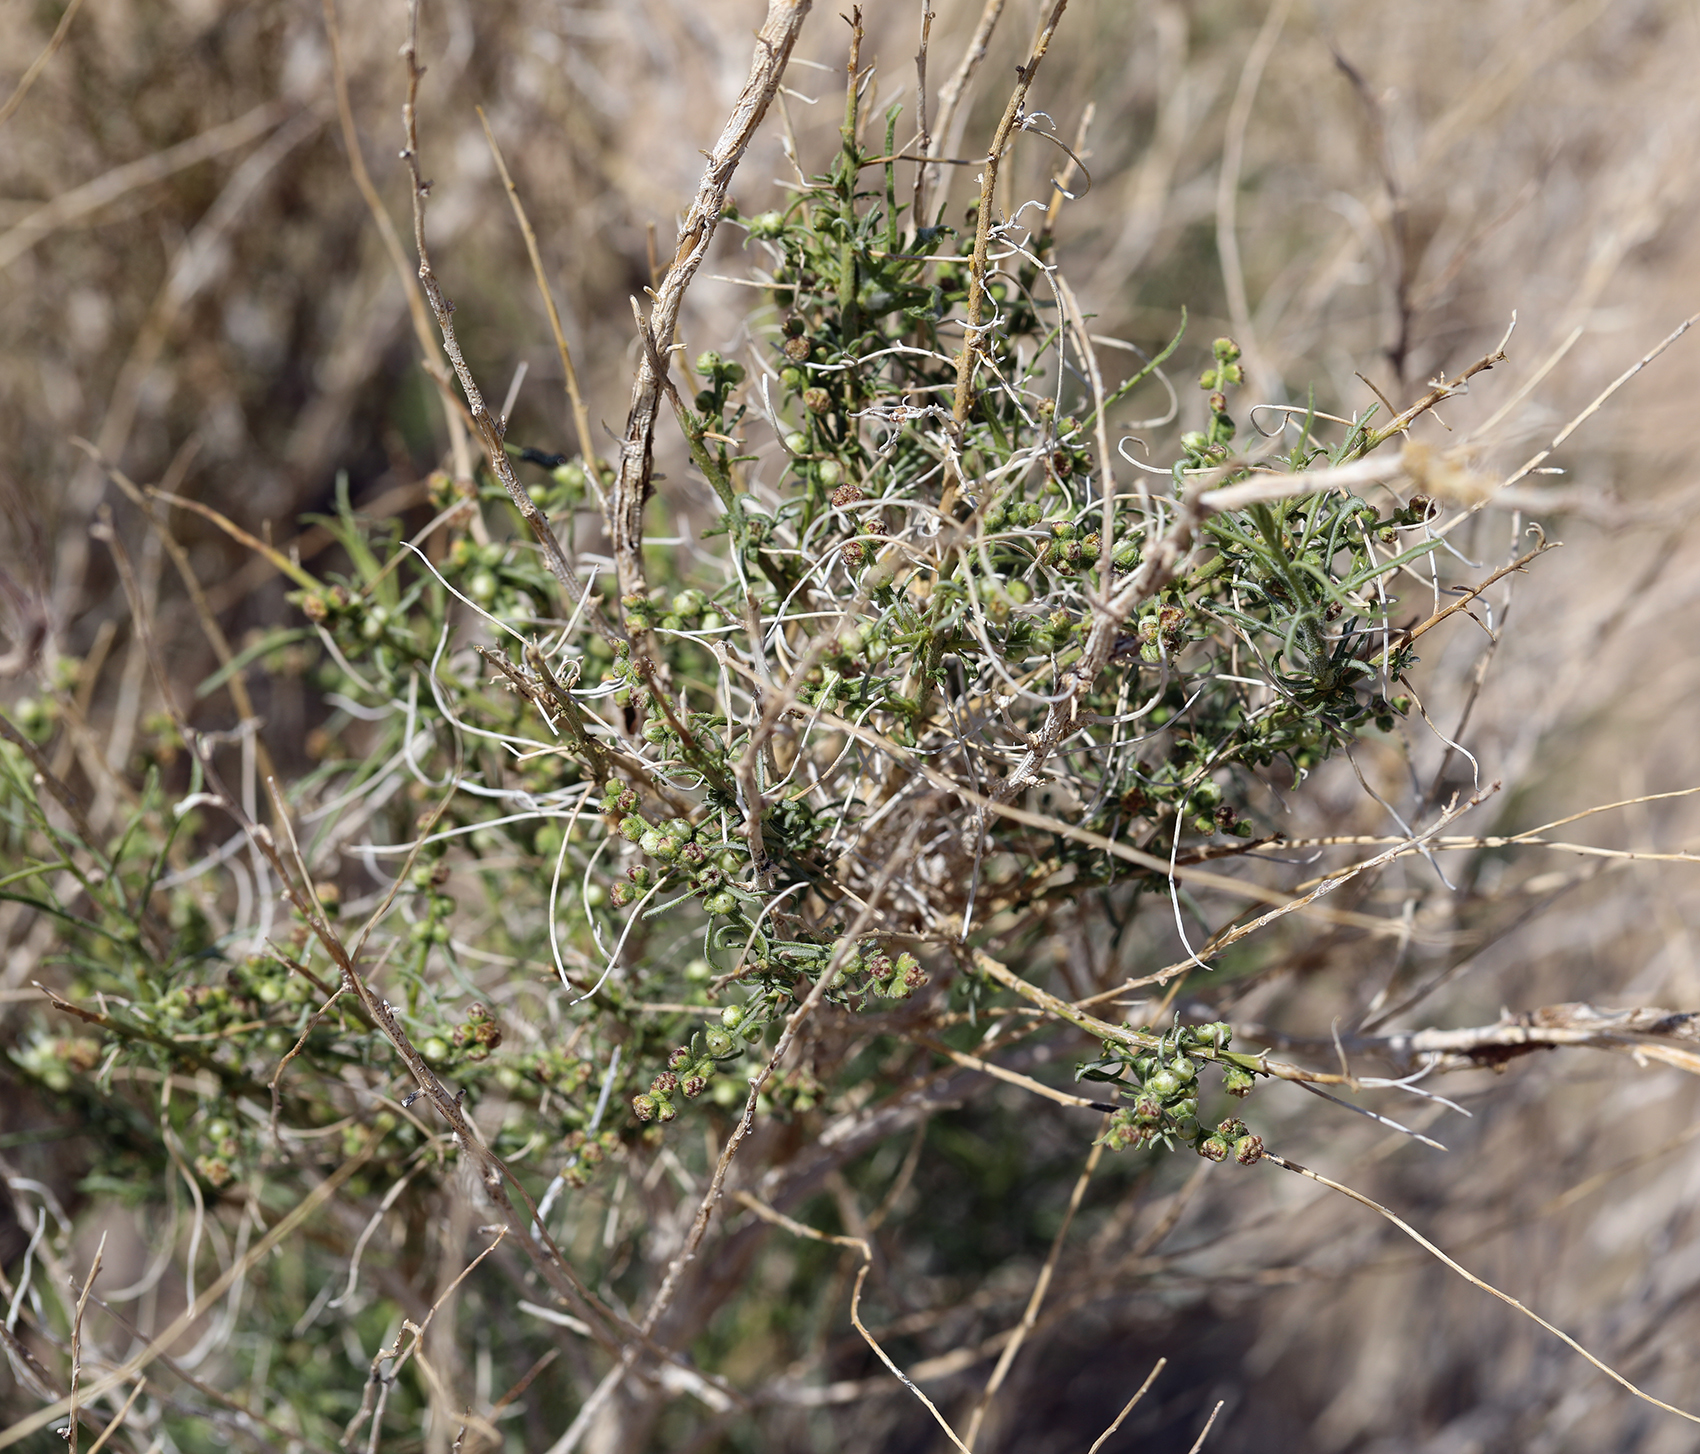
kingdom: Plantae
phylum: Tracheophyta
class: Magnoliopsida
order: Asterales
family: Asteraceae
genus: Ambrosia
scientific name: Ambrosia salsola
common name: Burrobrush
